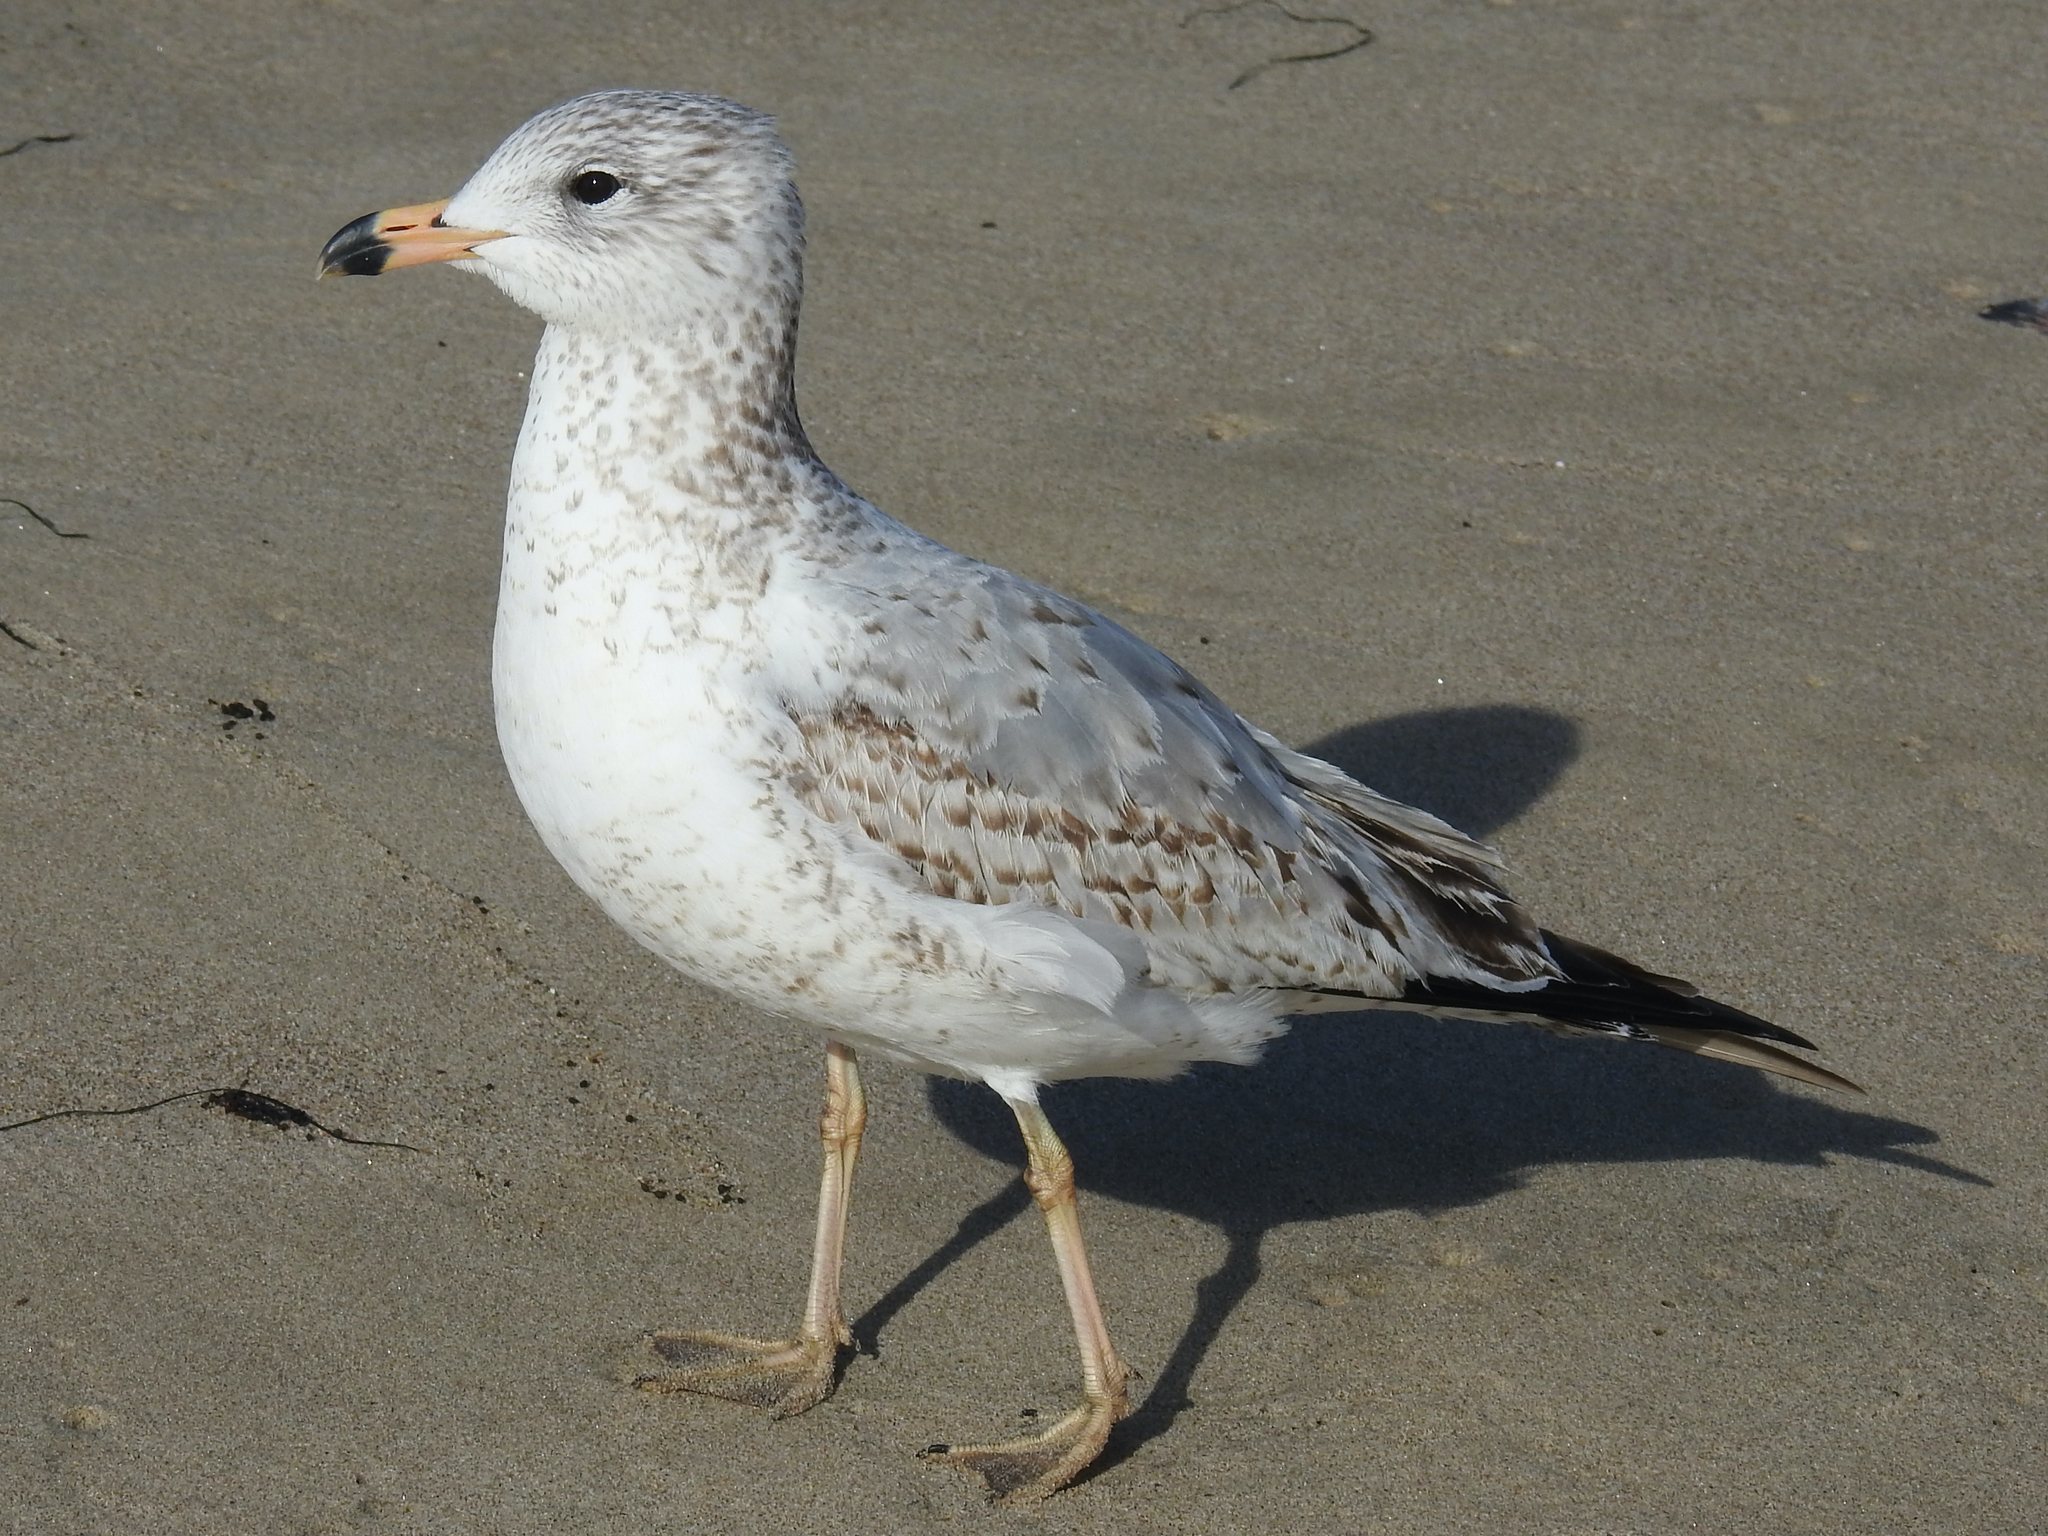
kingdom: Animalia
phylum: Chordata
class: Aves
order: Charadriiformes
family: Laridae
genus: Larus
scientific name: Larus delawarensis
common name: Ring-billed gull
